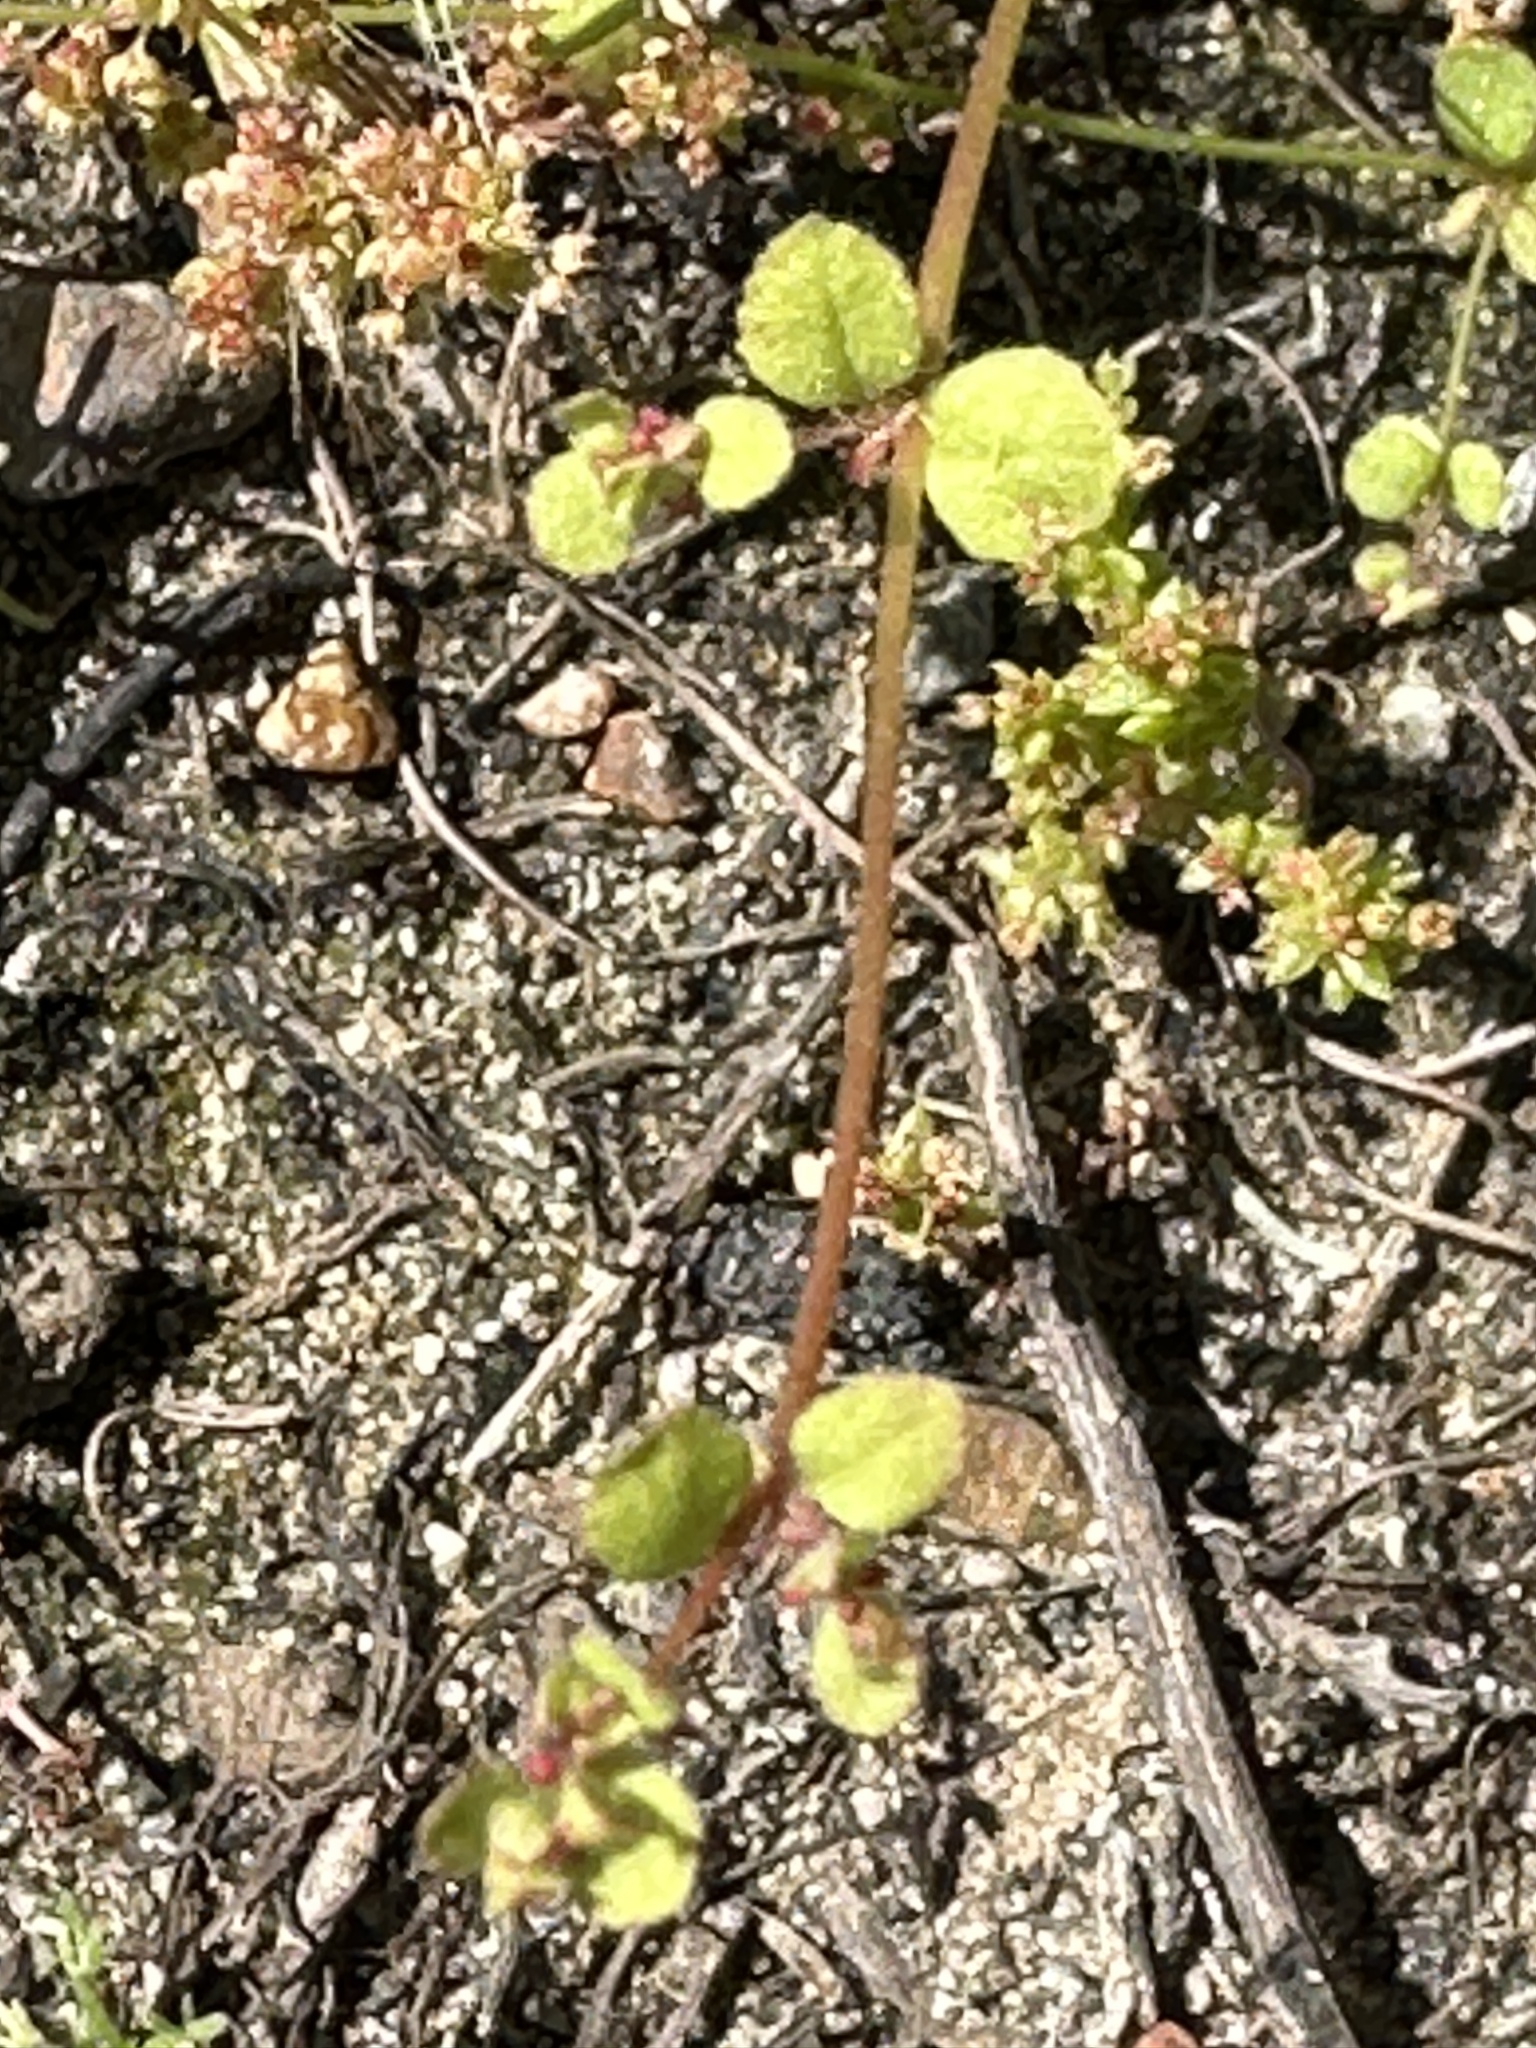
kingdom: Plantae
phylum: Tracheophyta
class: Magnoliopsida
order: Caryophyllales
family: Polygonaceae
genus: Pterostegia
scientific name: Pterostegia drymarioides
